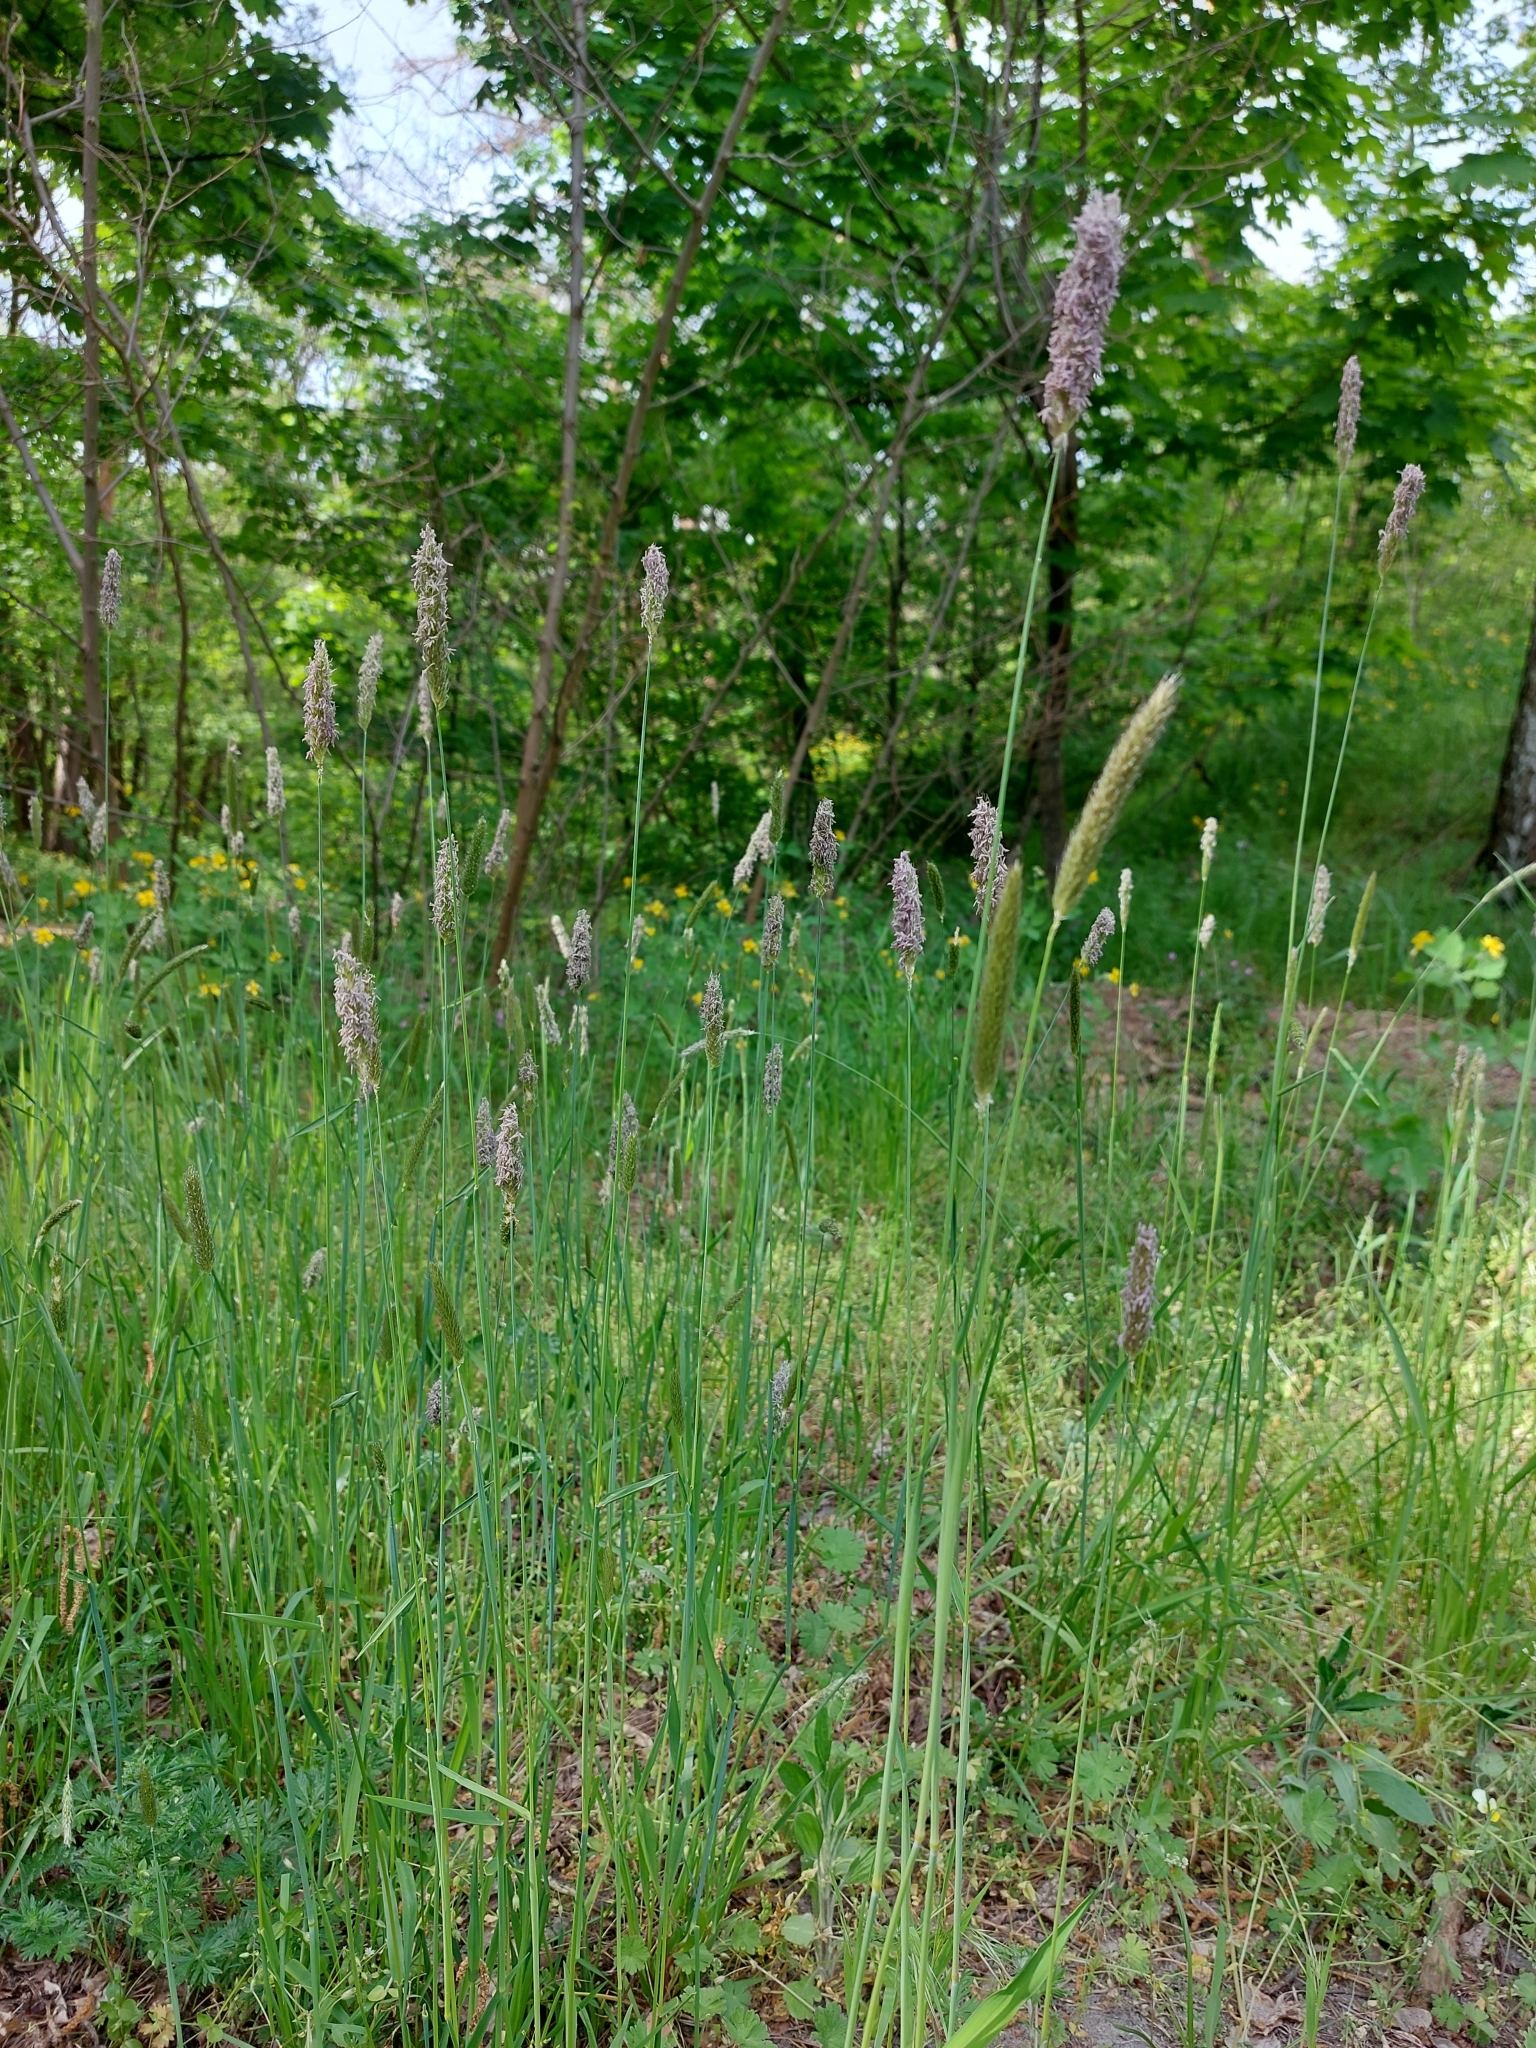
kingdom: Plantae
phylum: Tracheophyta
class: Liliopsida
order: Poales
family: Poaceae
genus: Alopecurus
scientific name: Alopecurus pratensis
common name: Meadow foxtail
